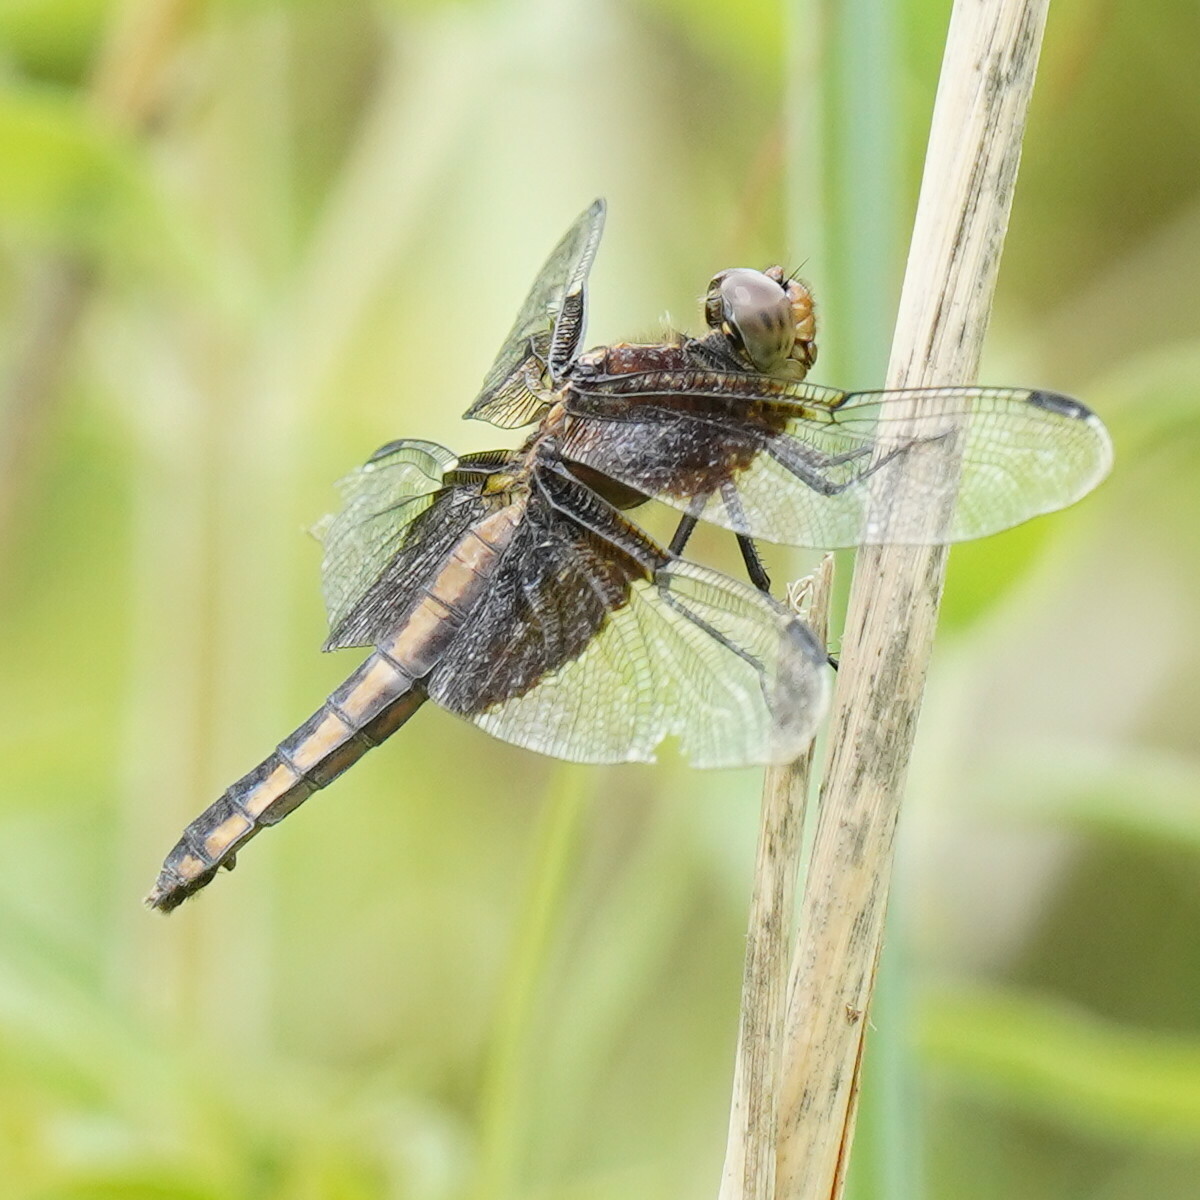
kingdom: Animalia
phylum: Arthropoda
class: Insecta
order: Odonata
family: Libellulidae
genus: Libellula
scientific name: Libellula luctuosa
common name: Widow skimmer
